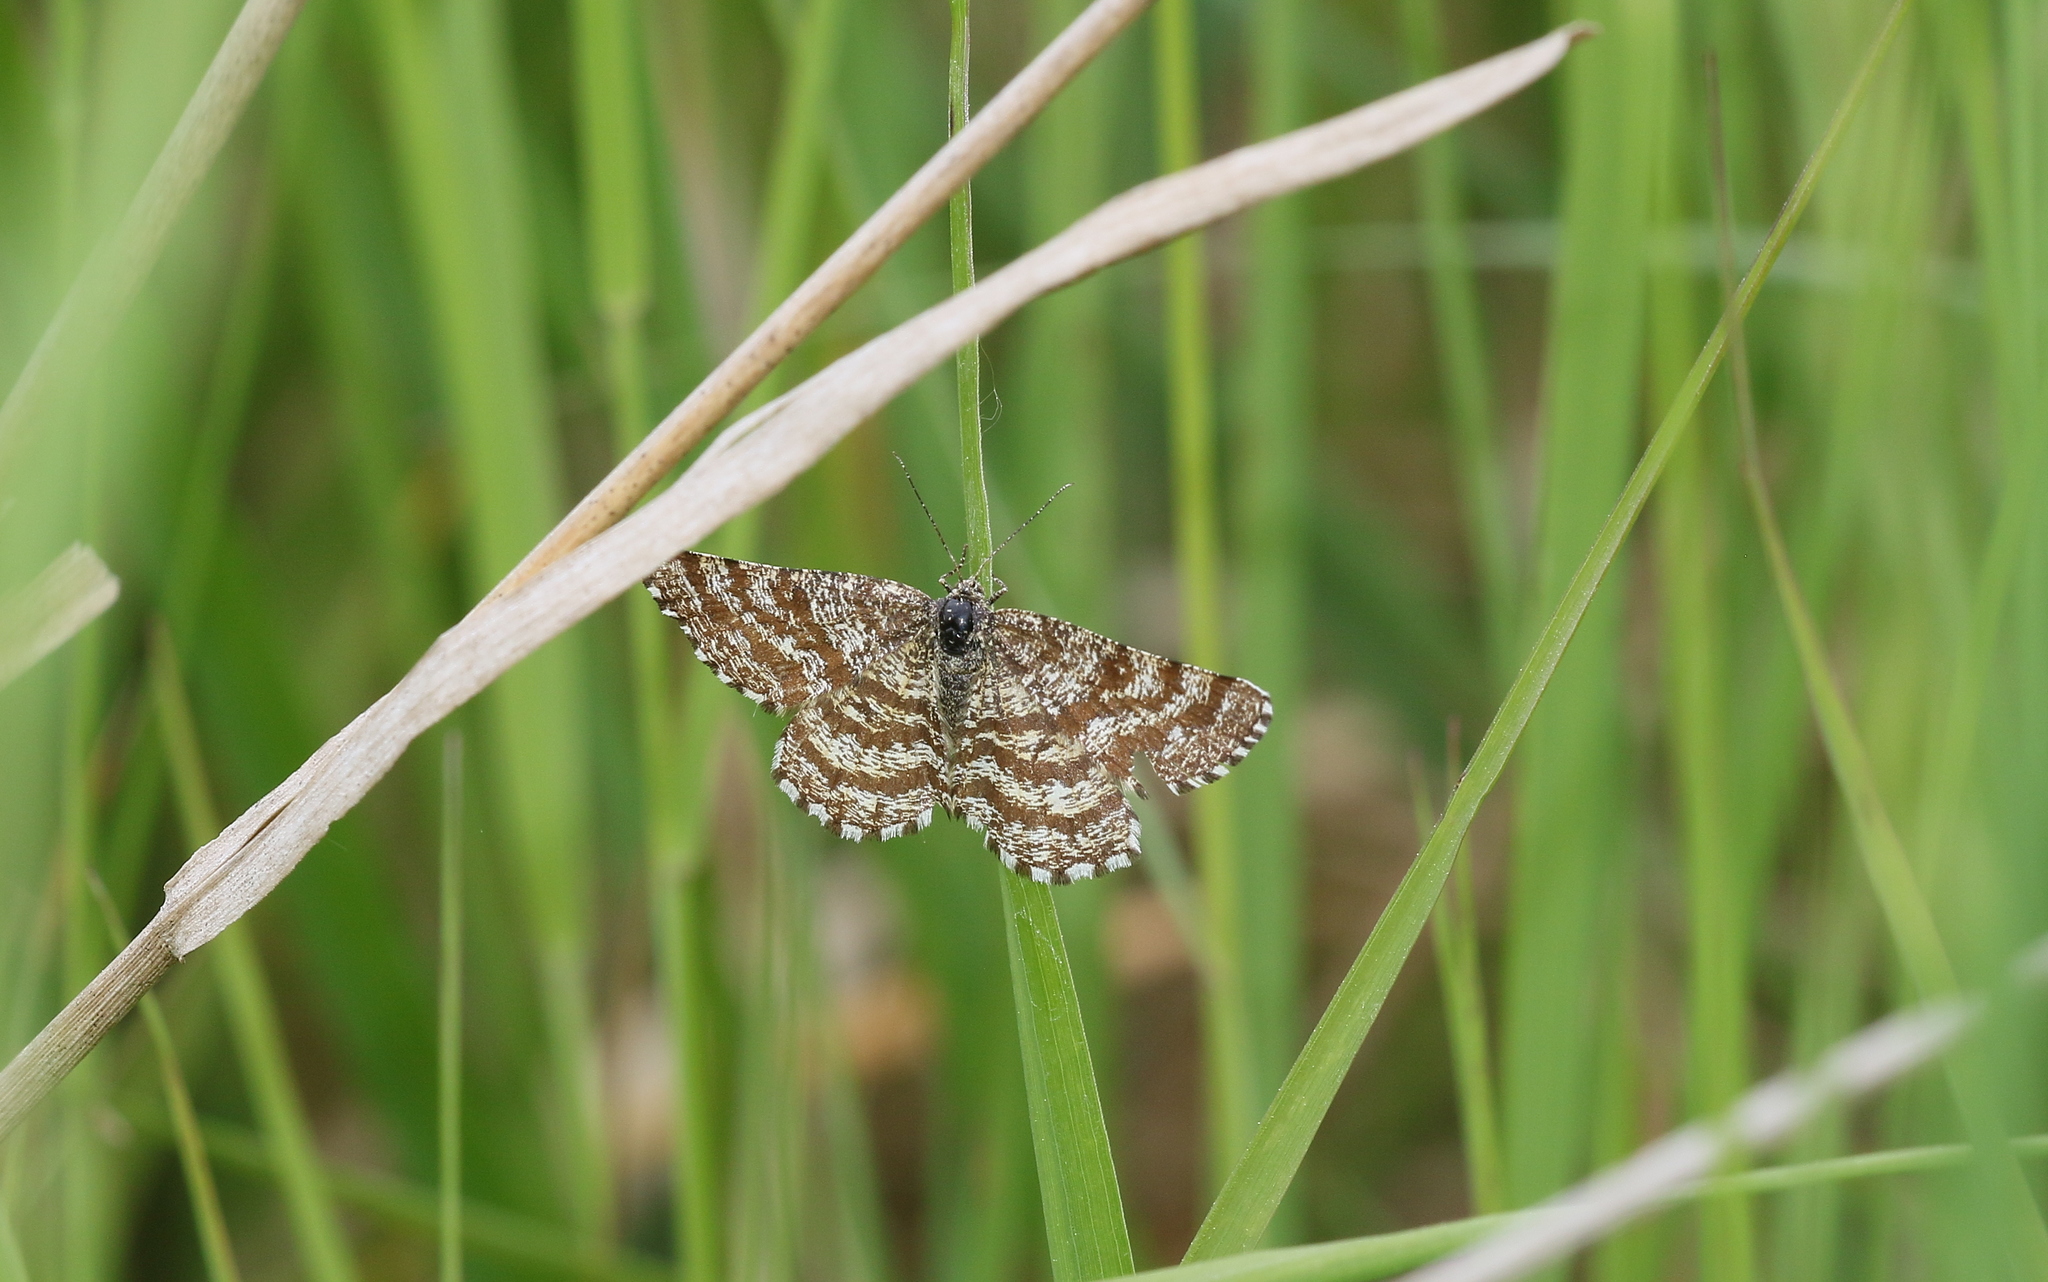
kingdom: Animalia
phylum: Arthropoda
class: Insecta
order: Lepidoptera
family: Geometridae
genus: Ematurga
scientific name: Ematurga atomaria
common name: Common heath
